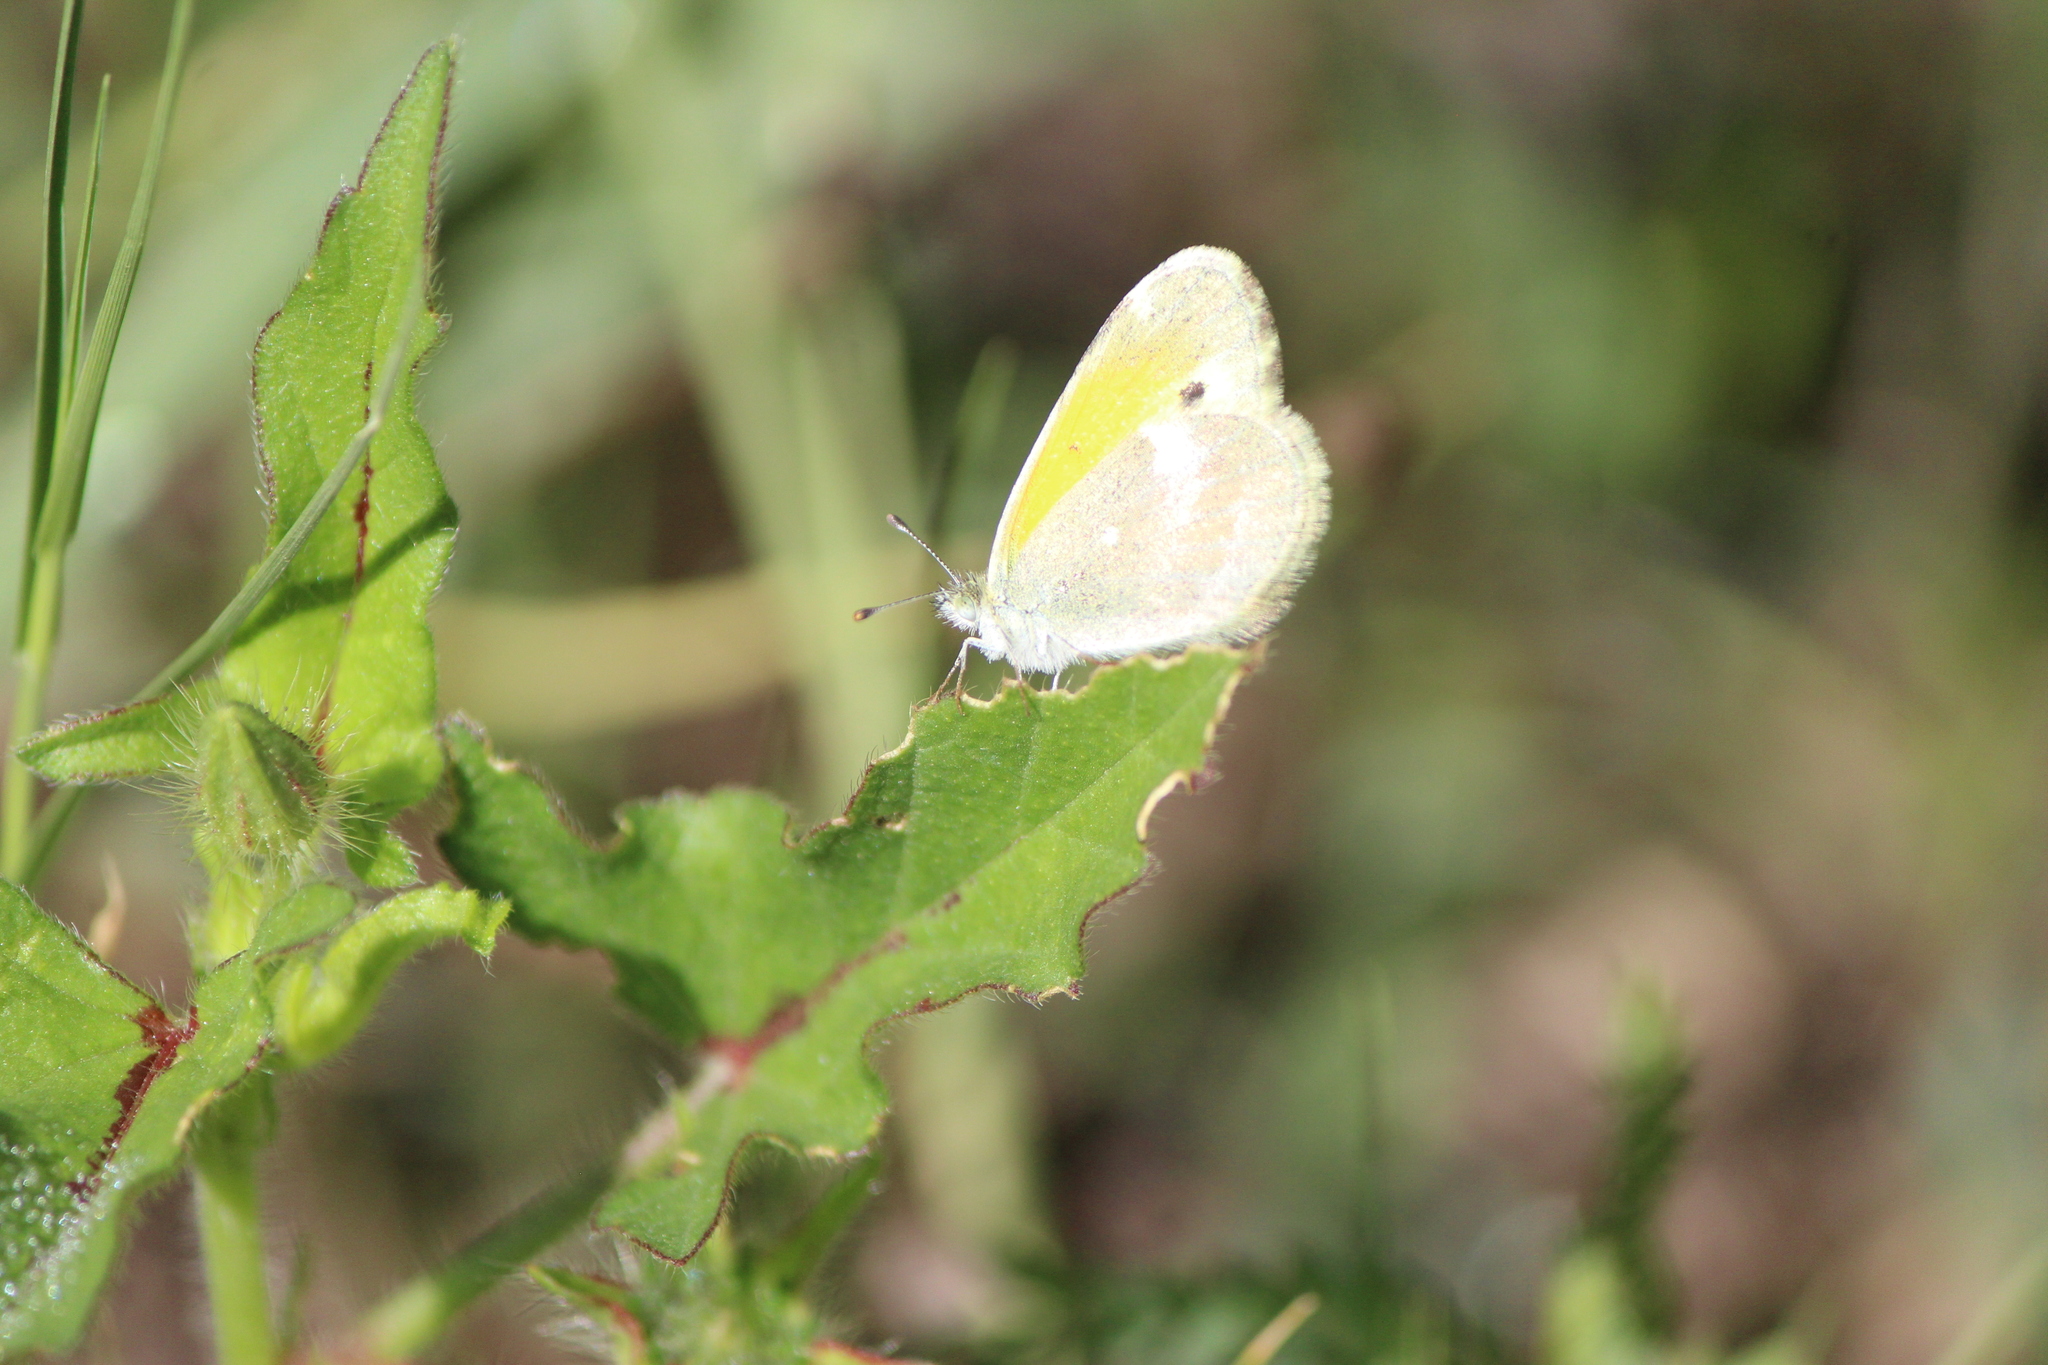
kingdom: Animalia
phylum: Arthropoda
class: Insecta
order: Lepidoptera
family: Pieridae
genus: Nathalis
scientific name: Nathalis iole
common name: Dainty sulphur
